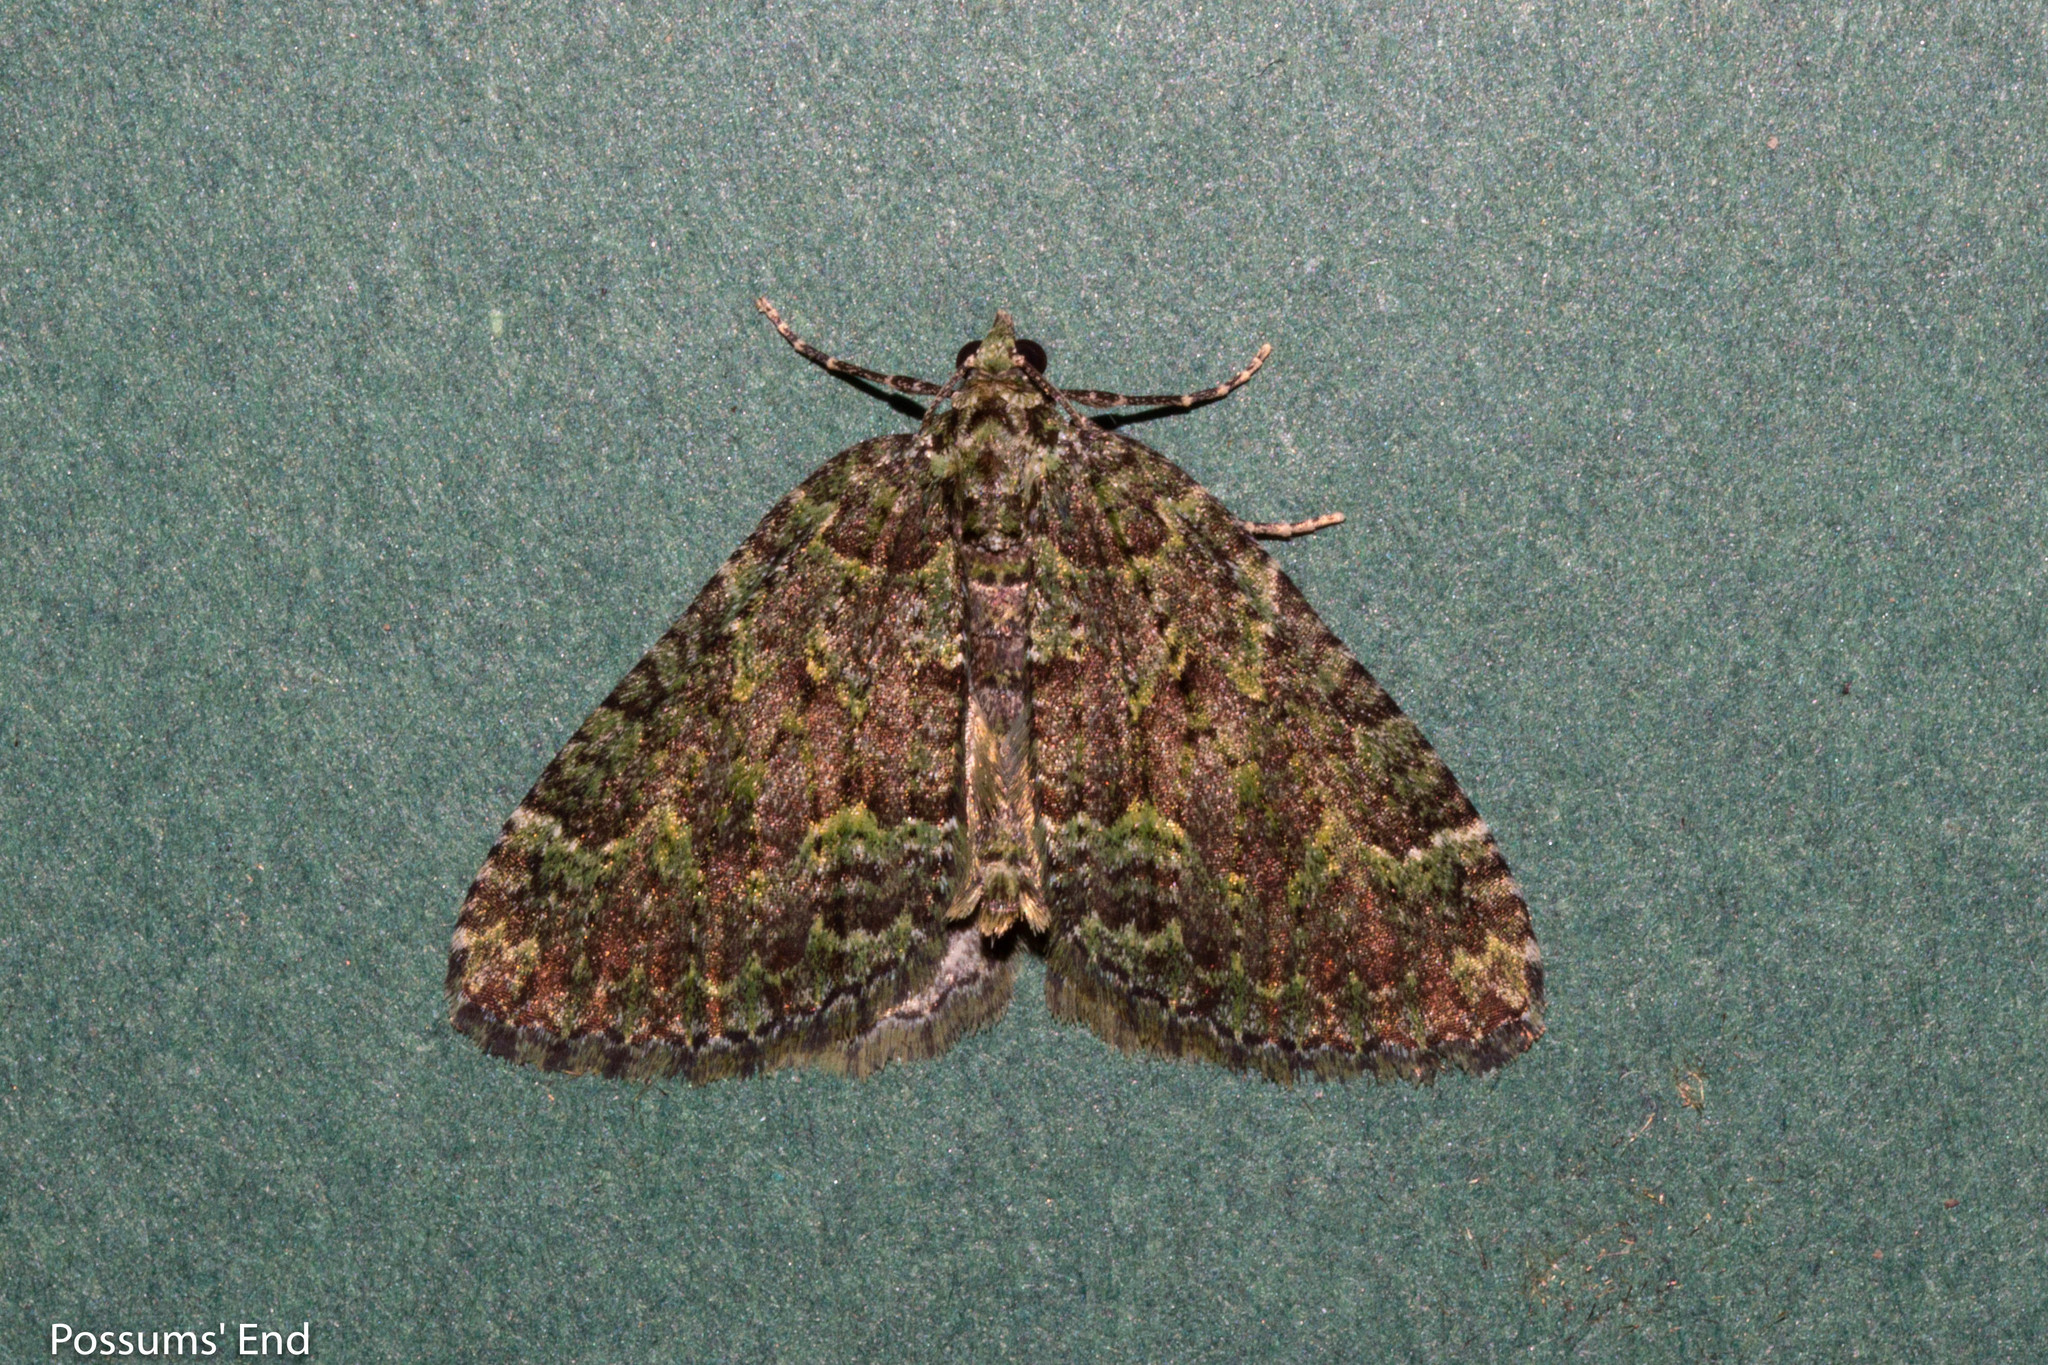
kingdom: Animalia
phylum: Arthropoda
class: Insecta
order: Lepidoptera
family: Geometridae
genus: Austrocidaria
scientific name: Austrocidaria callichlora
